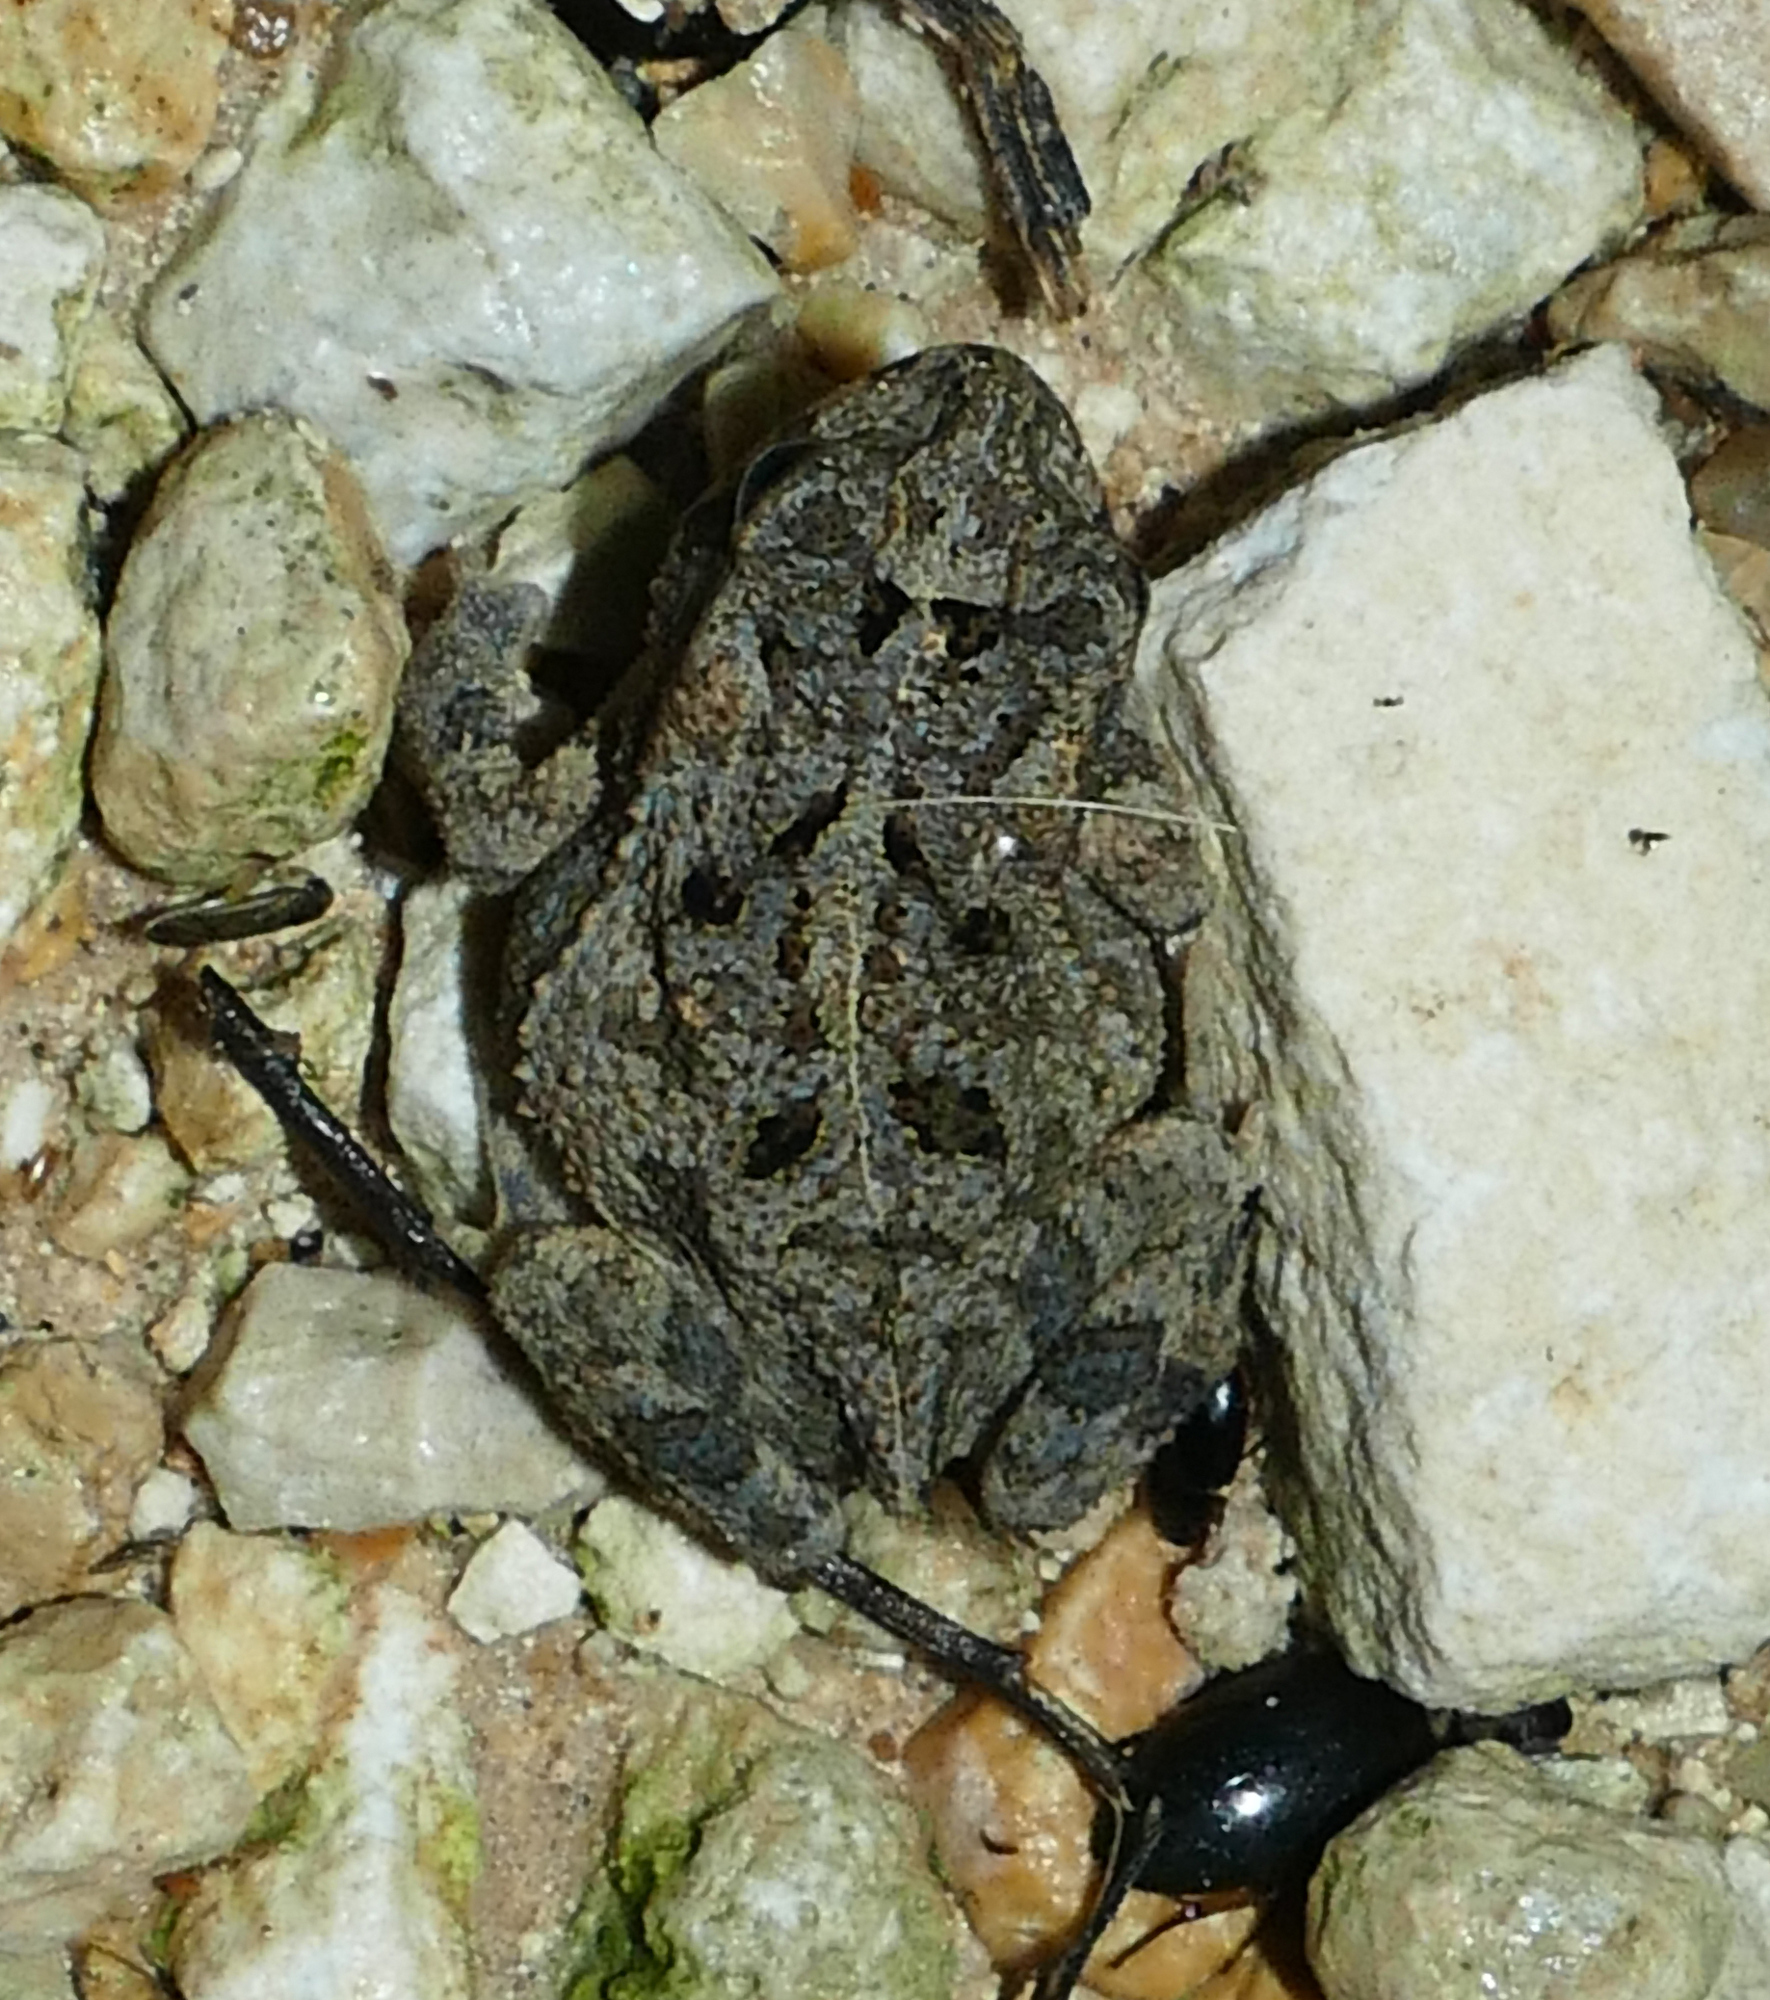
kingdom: Animalia
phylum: Chordata
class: Amphibia
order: Anura
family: Bufonidae
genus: Incilius
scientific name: Incilius nebulifer
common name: Gulf coast toad
